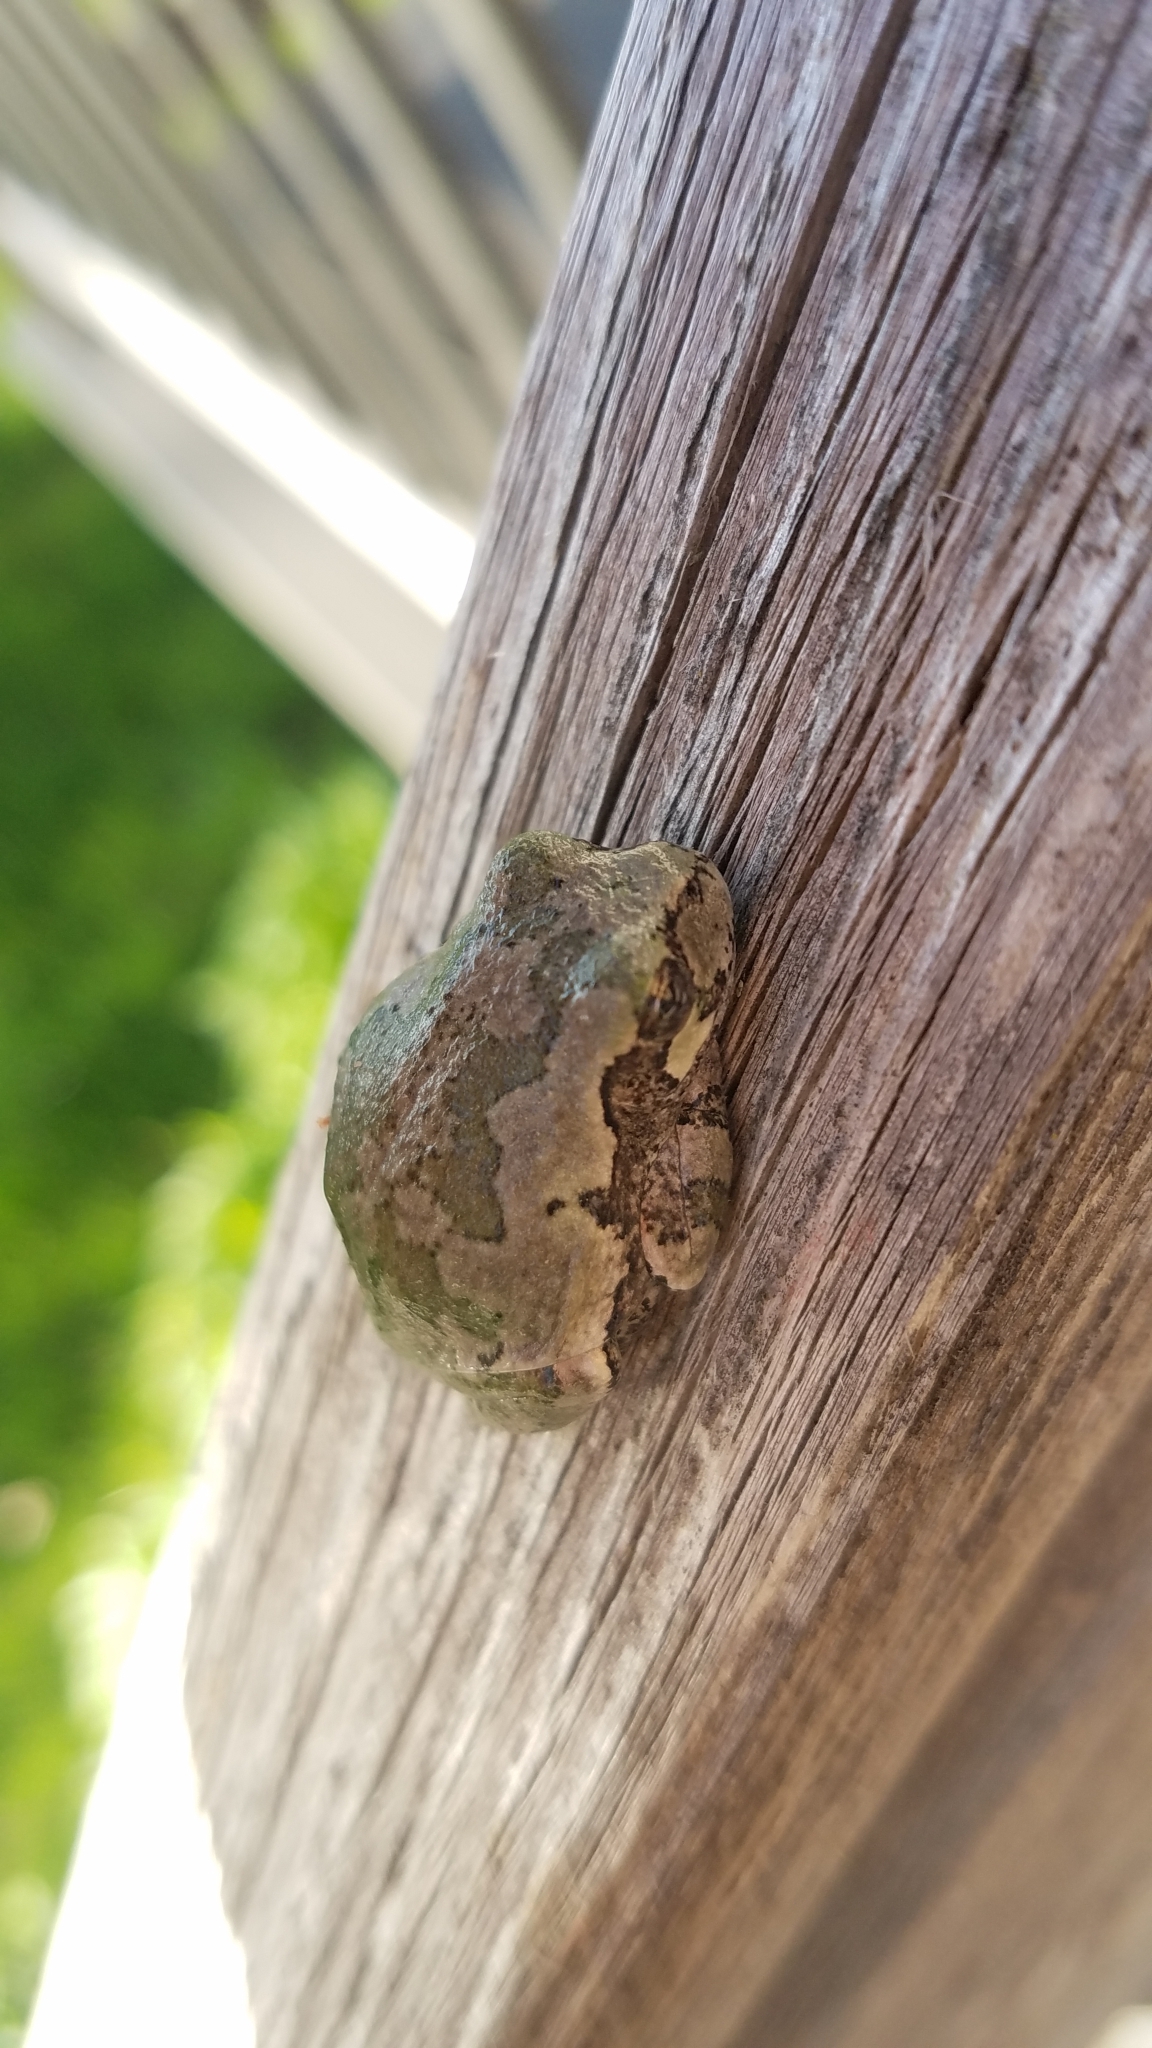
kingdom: Animalia
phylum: Chordata
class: Amphibia
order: Anura
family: Hylidae
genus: Hyla
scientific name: Hyla
